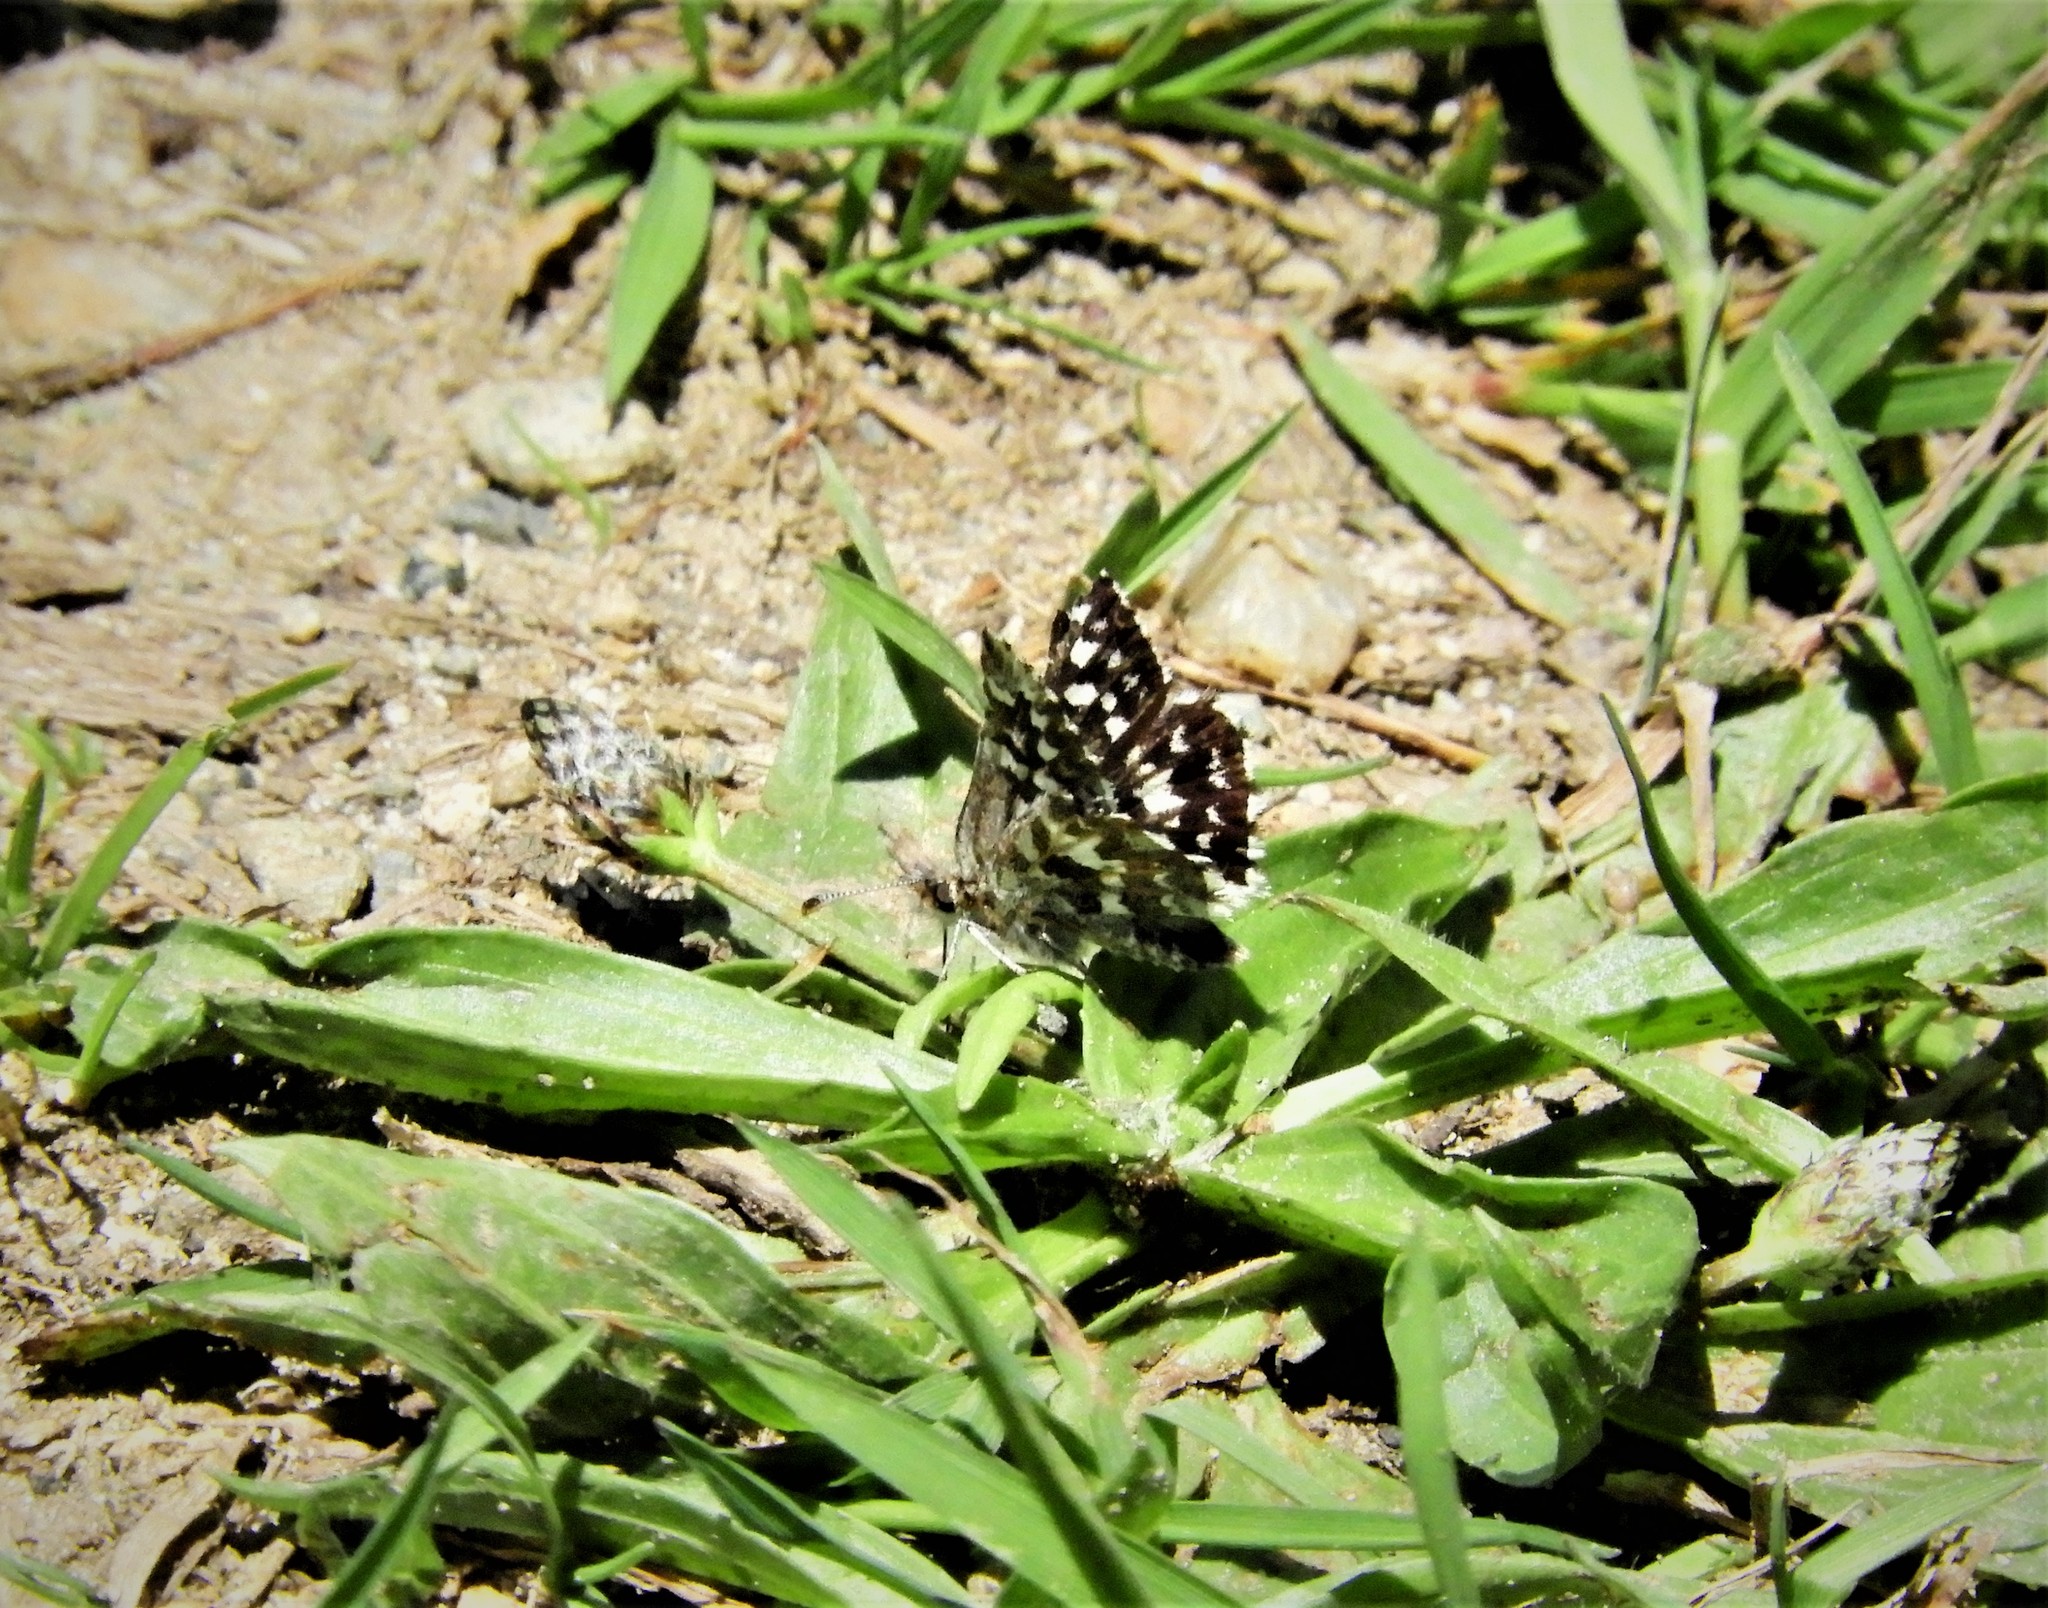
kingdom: Animalia
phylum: Arthropoda
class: Insecta
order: Lepidoptera
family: Hesperiidae
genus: Pyrgus
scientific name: Pyrgus ruralis
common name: Two-banded checkered-skipper
